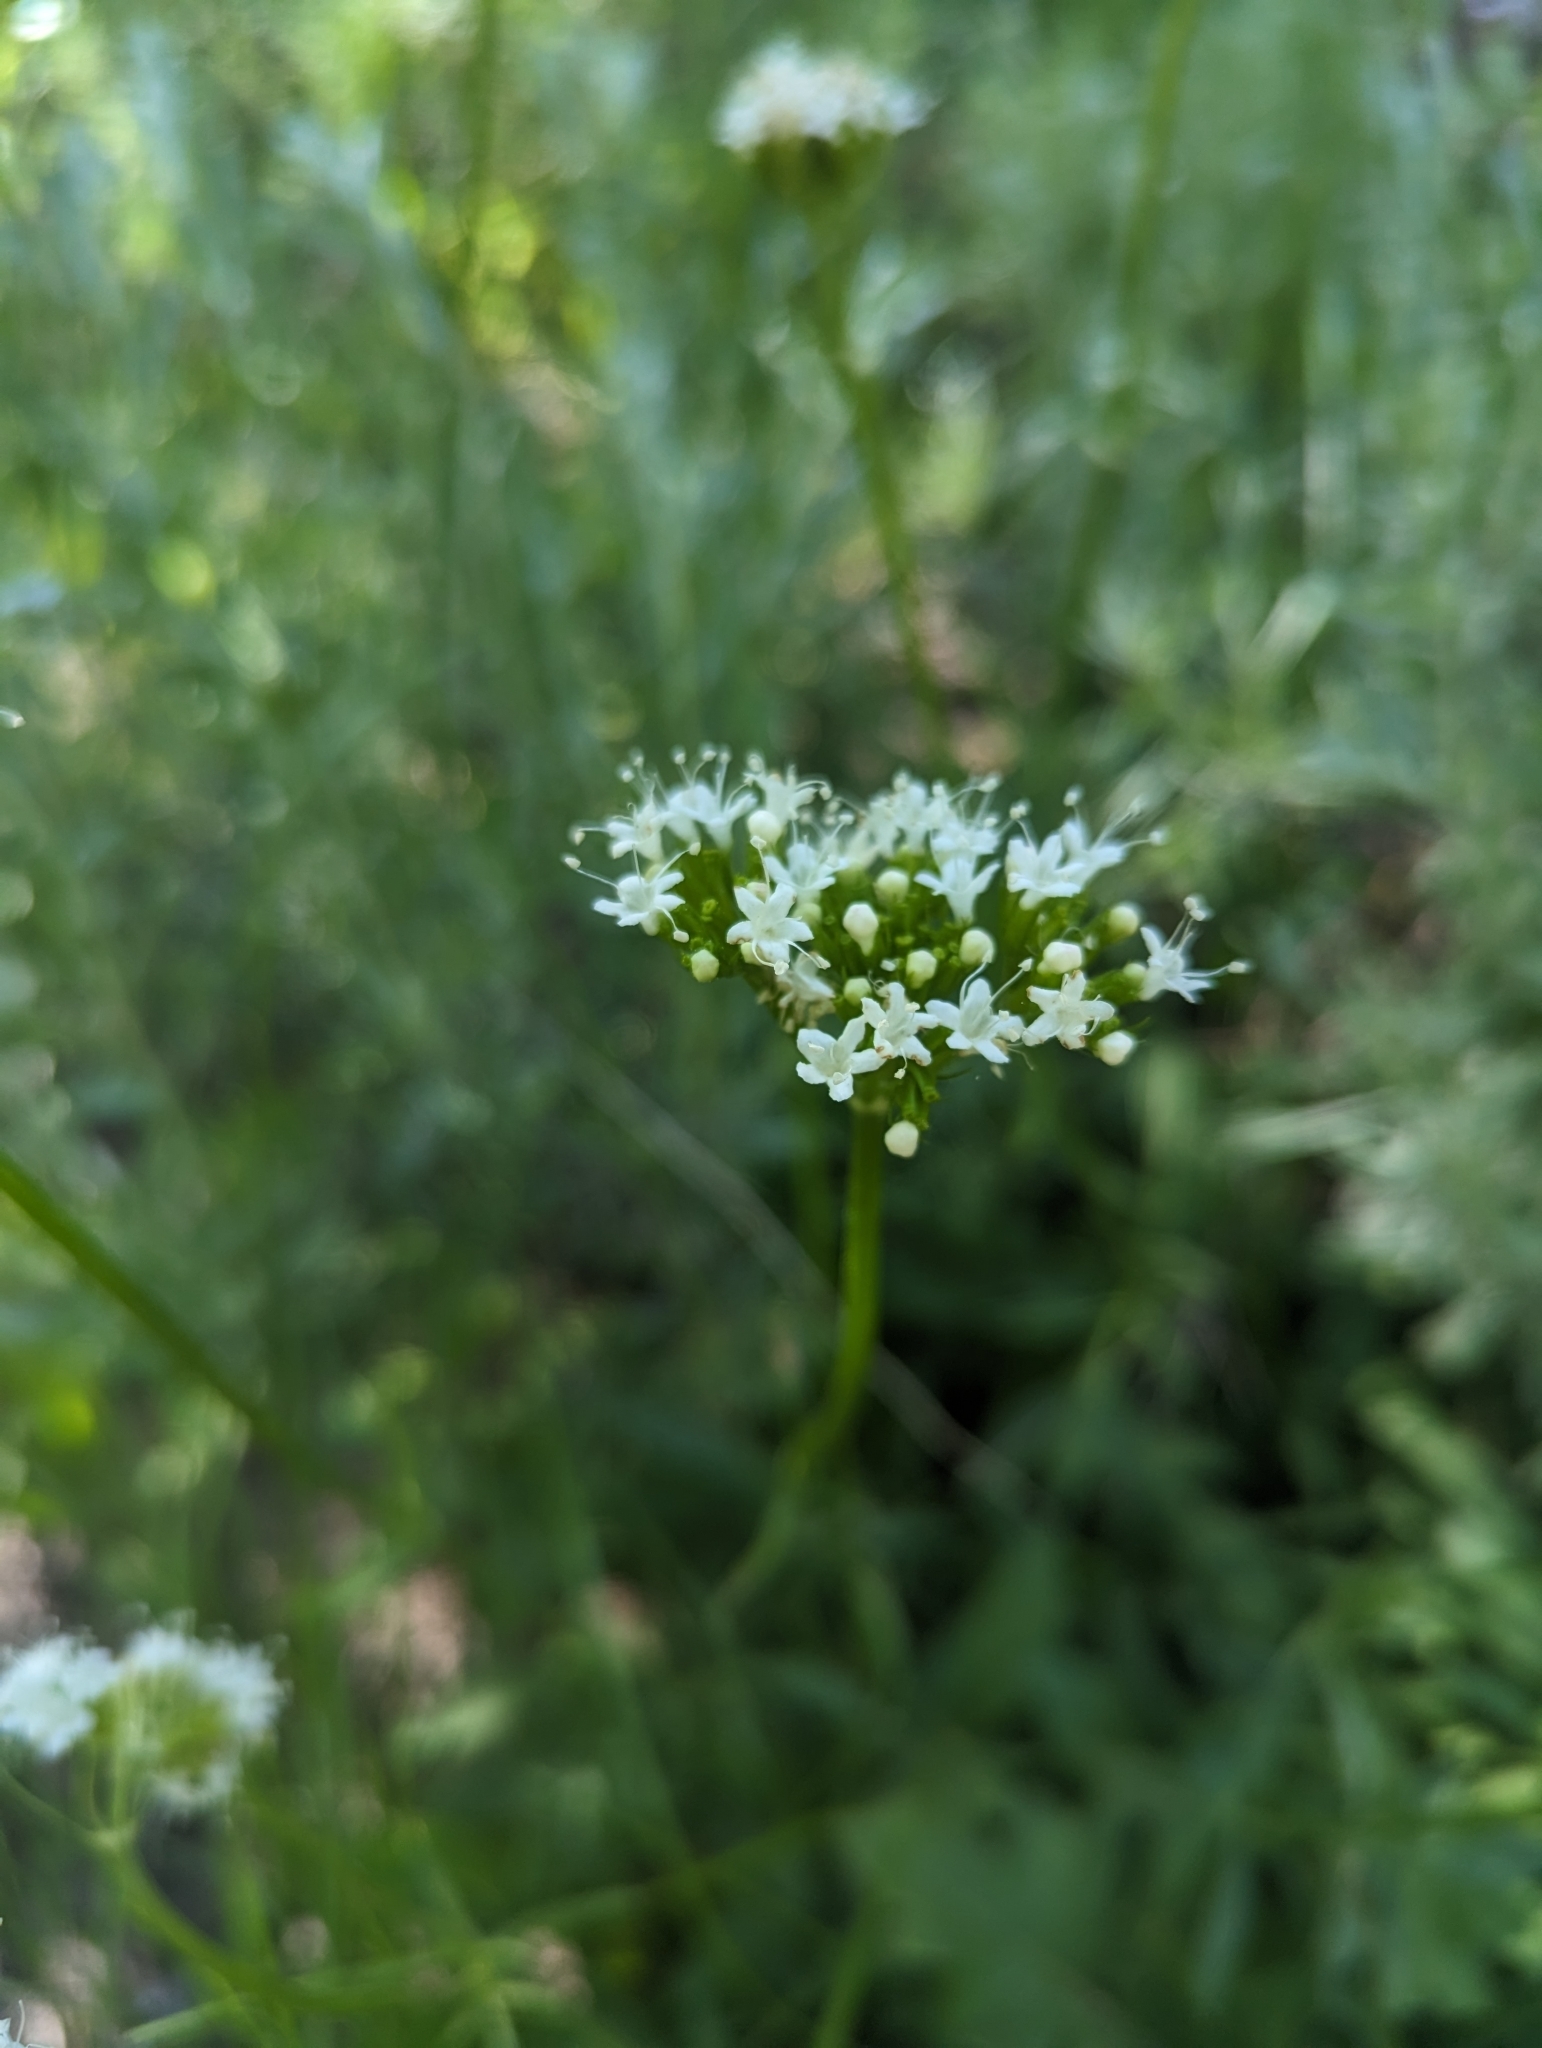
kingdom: Plantae
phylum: Tracheophyta
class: Magnoliopsida
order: Dipsacales
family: Caprifoliaceae
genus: Valeriana
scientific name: Valeriana californica
